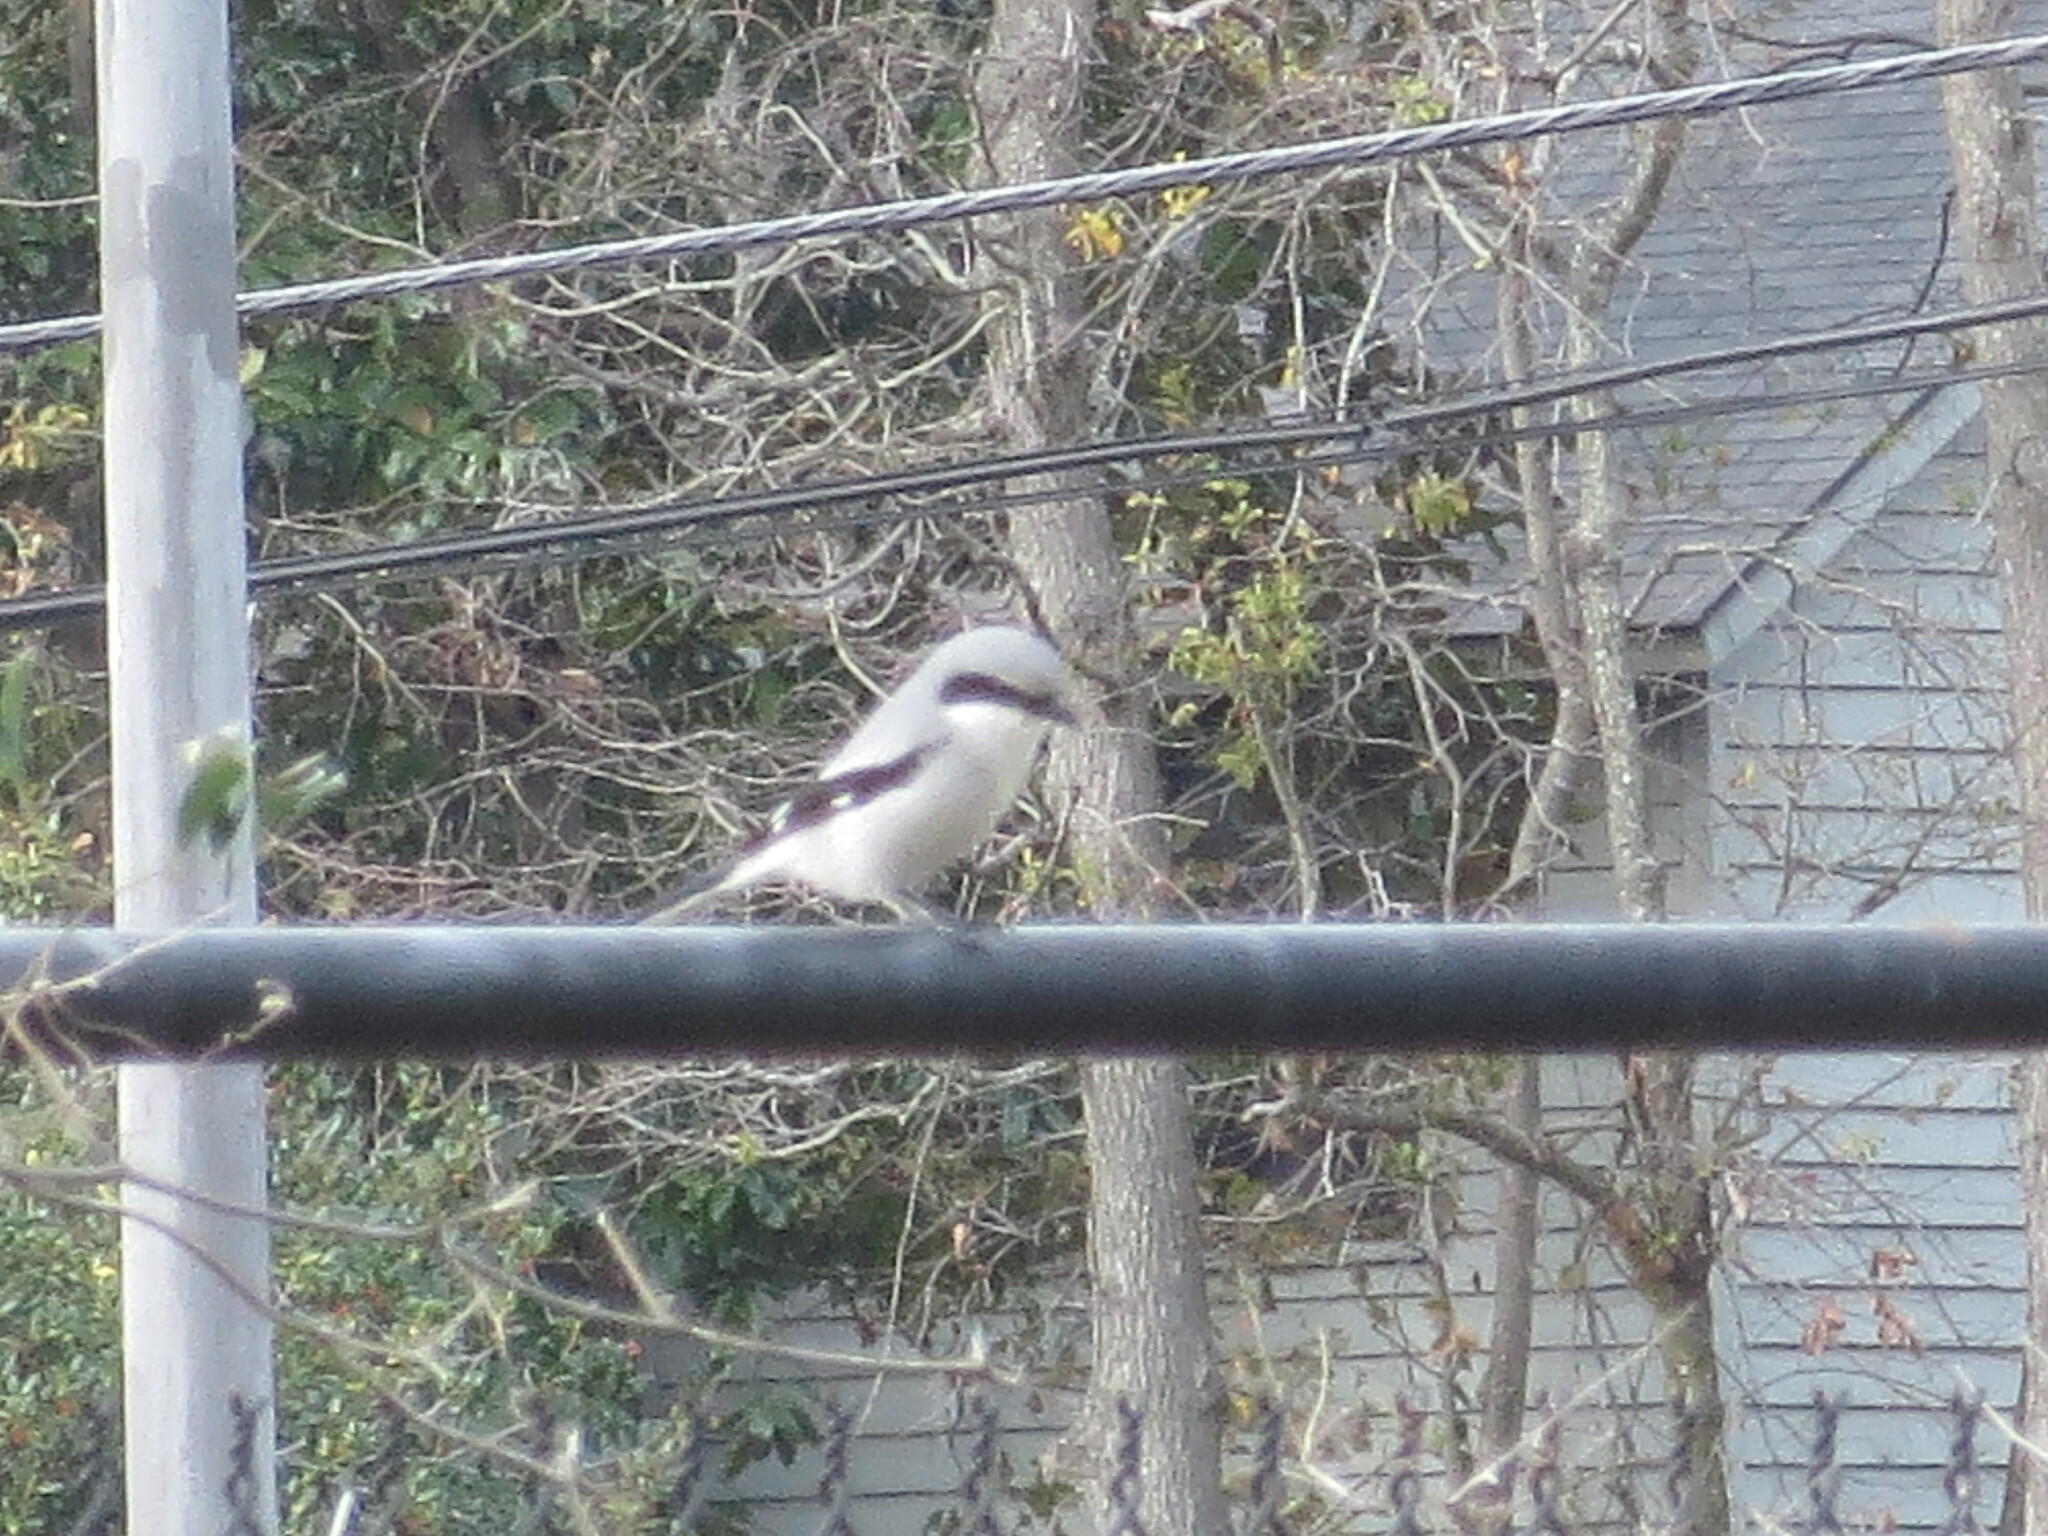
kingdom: Animalia
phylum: Chordata
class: Aves
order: Passeriformes
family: Laniidae
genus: Lanius
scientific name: Lanius ludovicianus
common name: Loggerhead shrike
